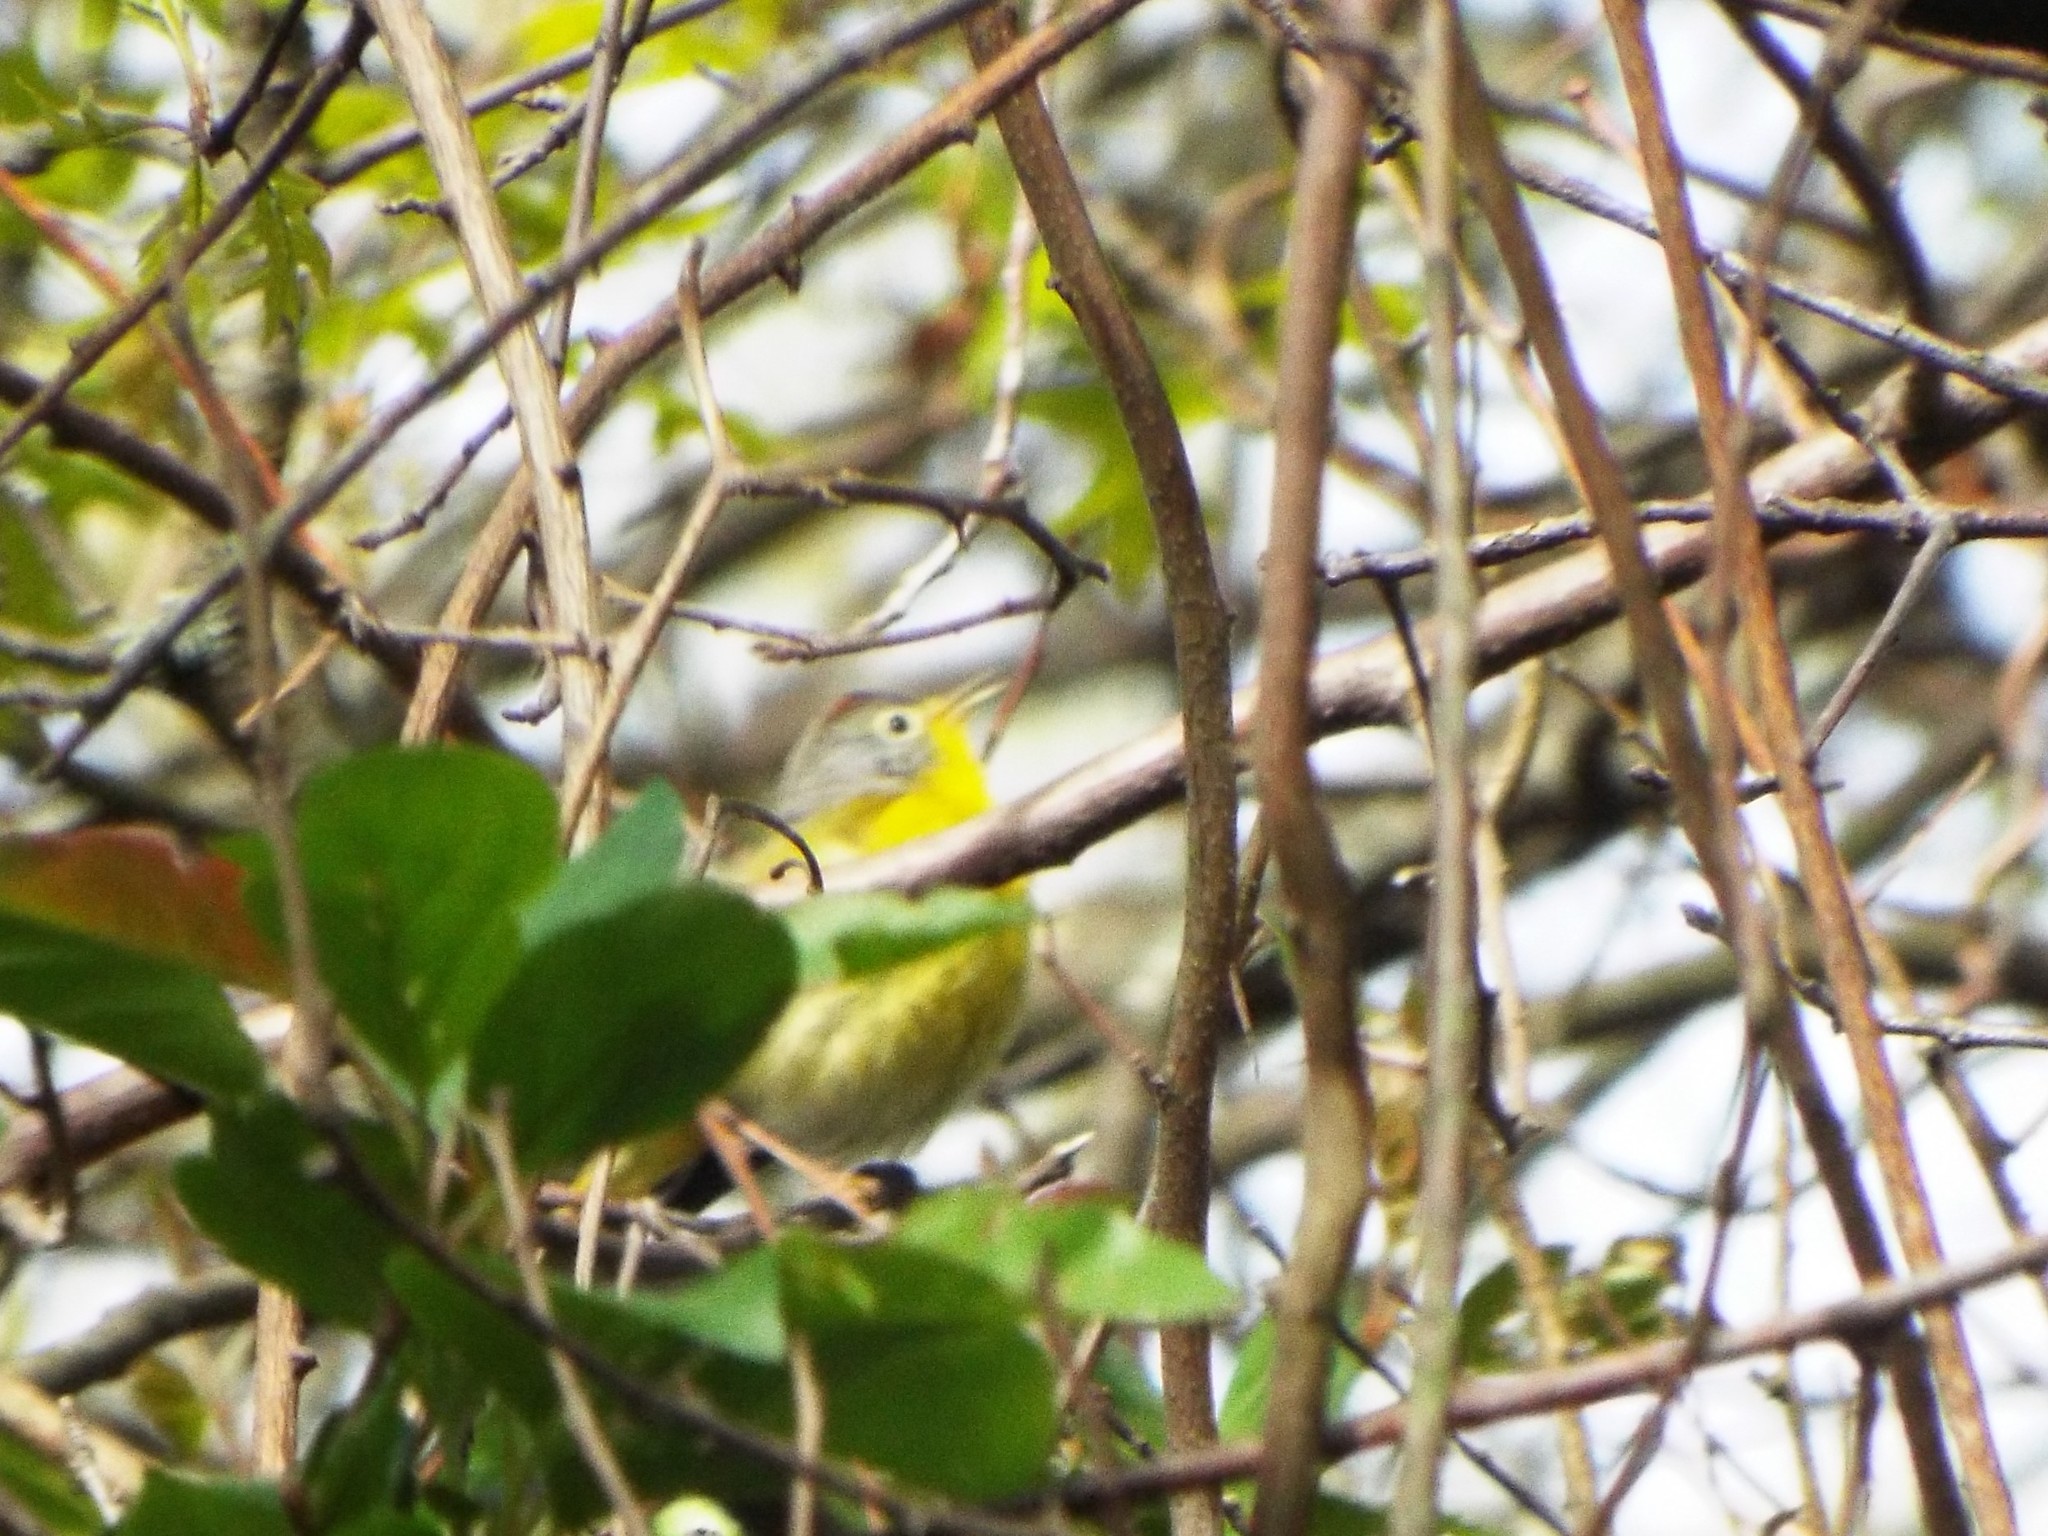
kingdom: Animalia
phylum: Chordata
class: Aves
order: Passeriformes
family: Parulidae
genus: Leiothlypis
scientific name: Leiothlypis ruficapilla
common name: Nashville warbler
